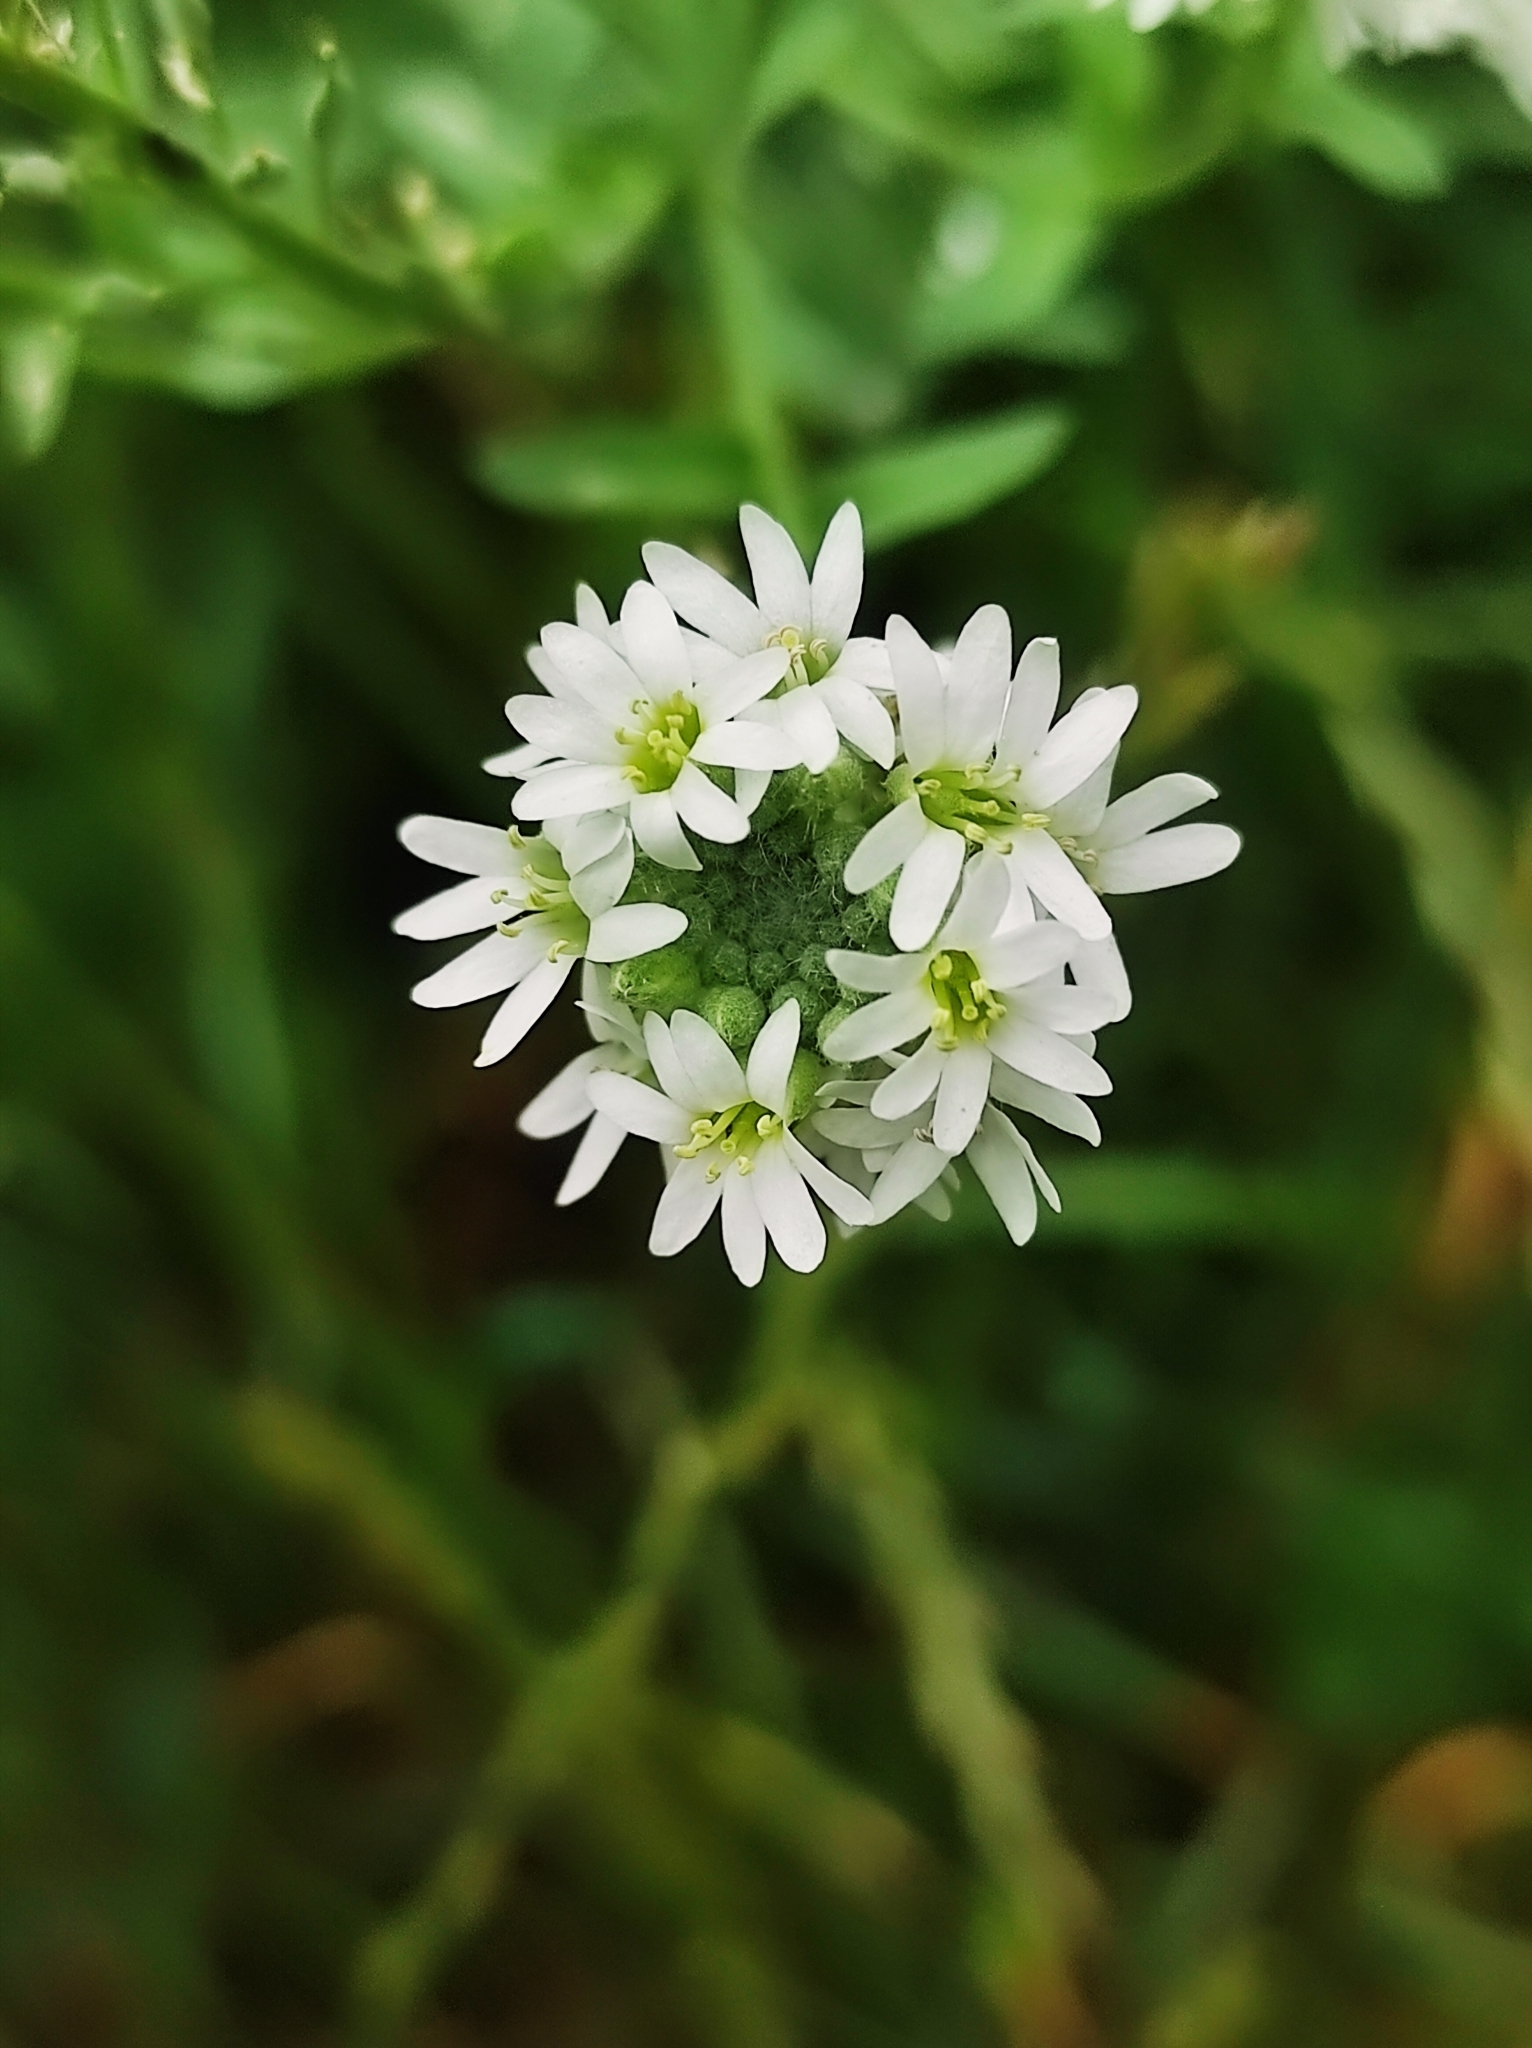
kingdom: Plantae
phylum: Tracheophyta
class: Magnoliopsida
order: Brassicales
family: Brassicaceae
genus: Berteroa
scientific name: Berteroa incana
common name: Hoary alison
